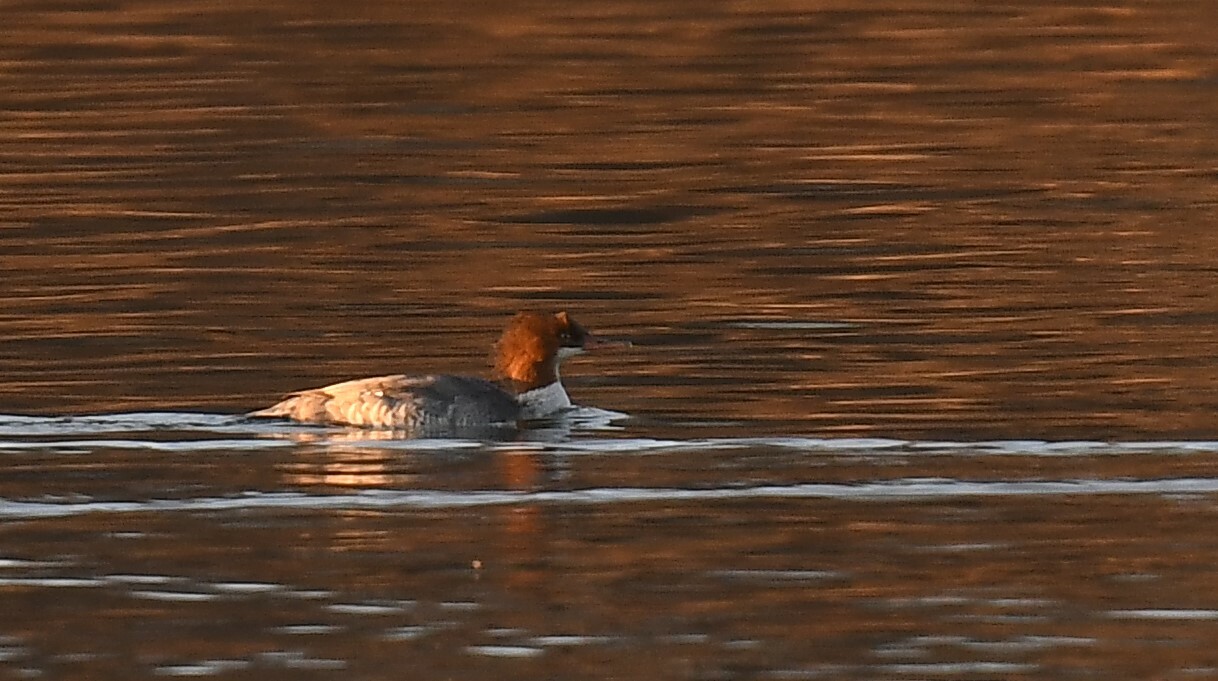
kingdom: Animalia
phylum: Chordata
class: Aves
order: Anseriformes
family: Anatidae
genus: Mergus
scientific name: Mergus merganser
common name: Common merganser
